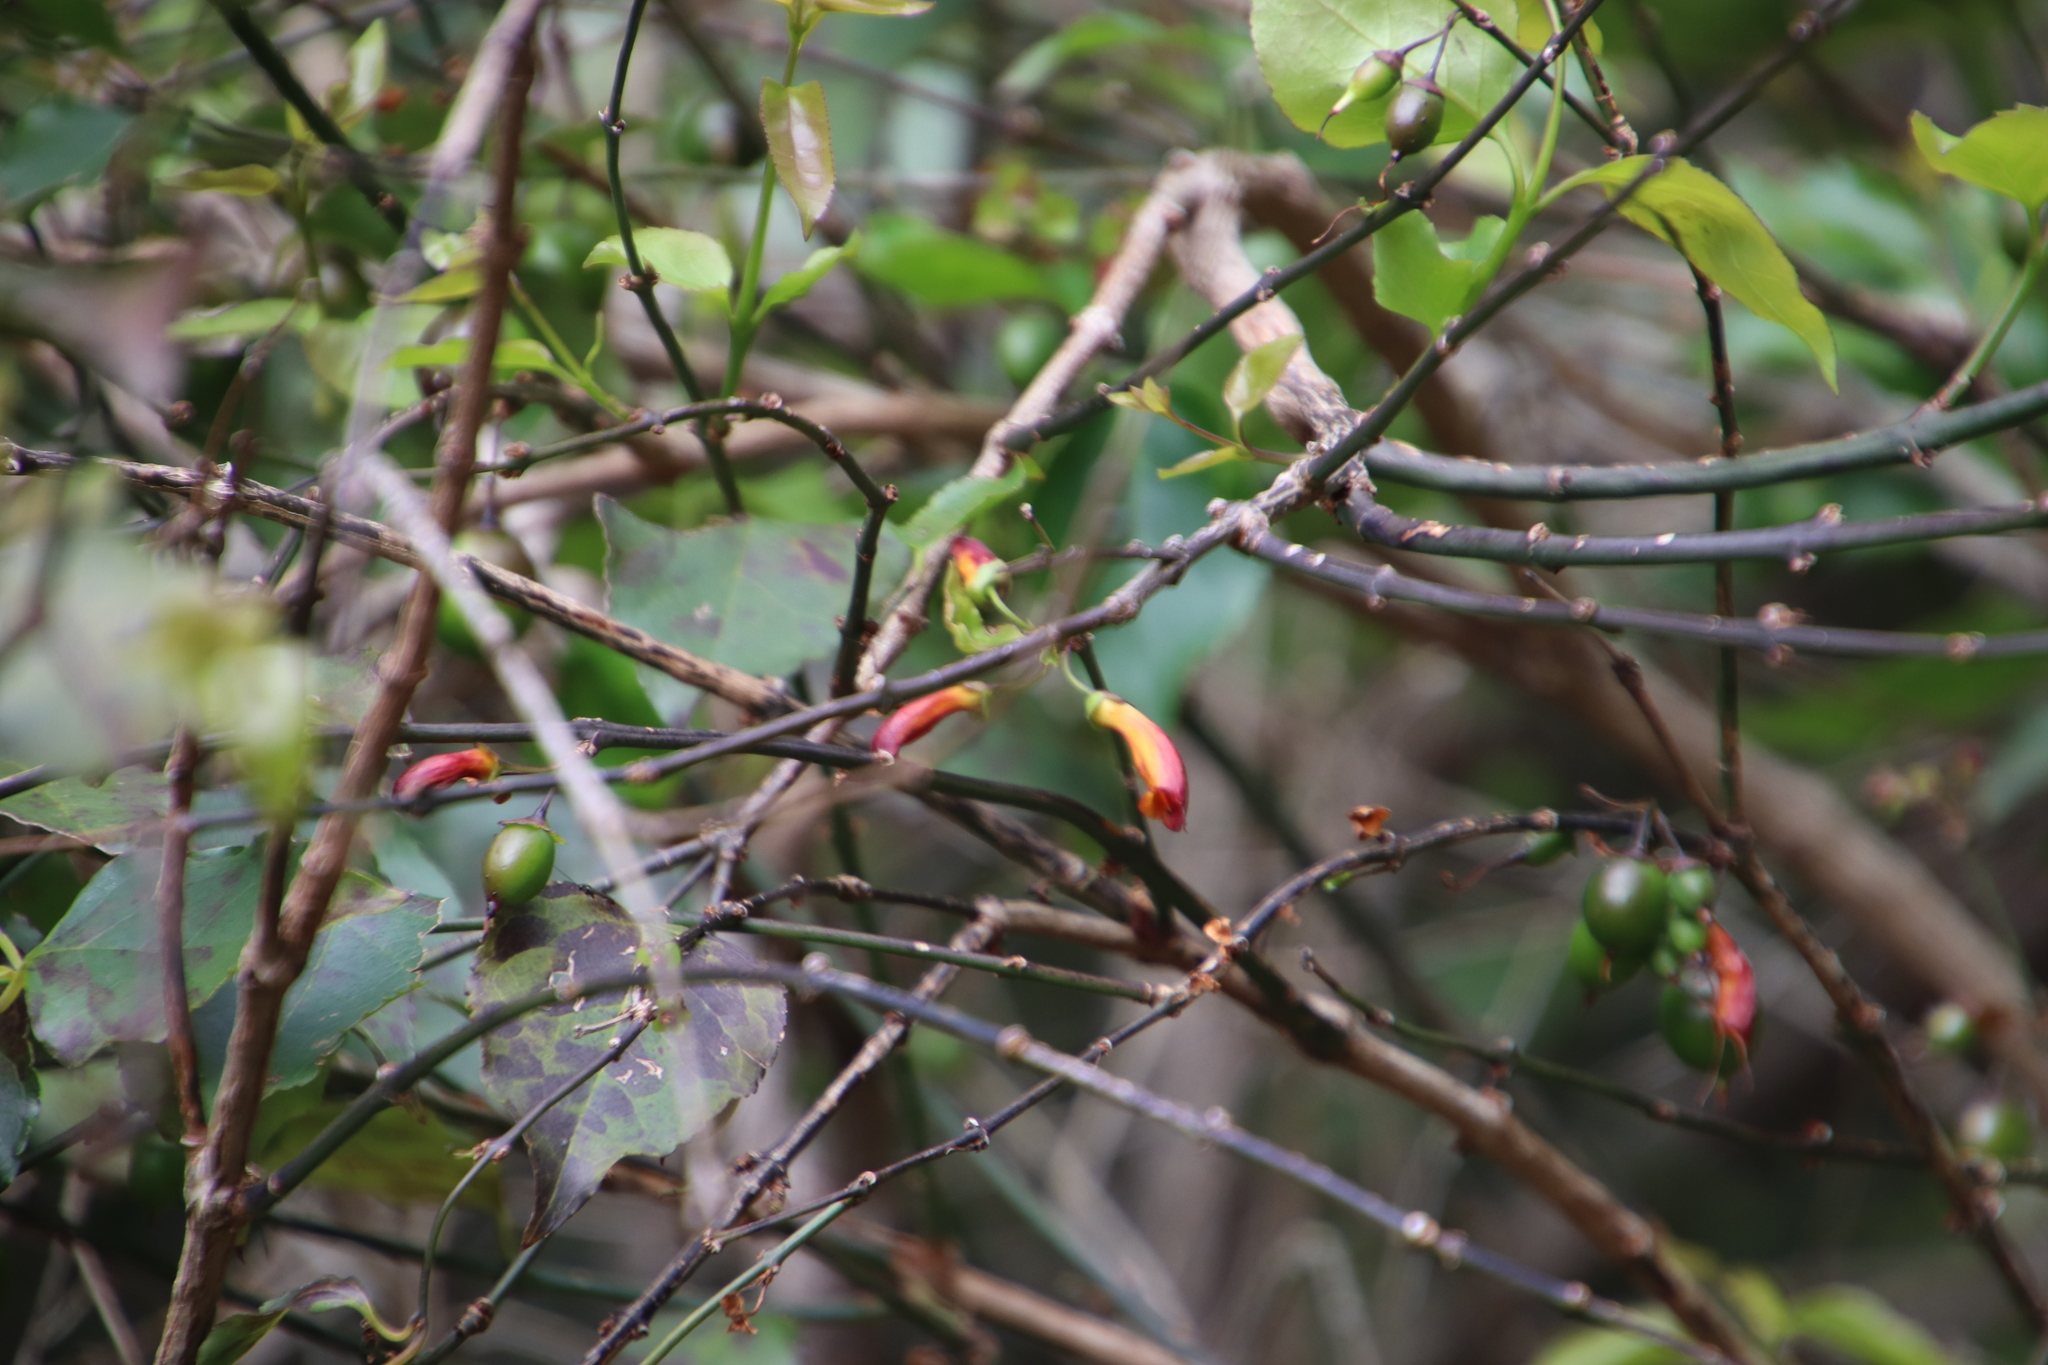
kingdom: Plantae
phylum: Tracheophyta
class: Magnoliopsida
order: Lamiales
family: Stilbaceae
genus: Halleria
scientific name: Halleria lucida
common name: Tree fuschia
